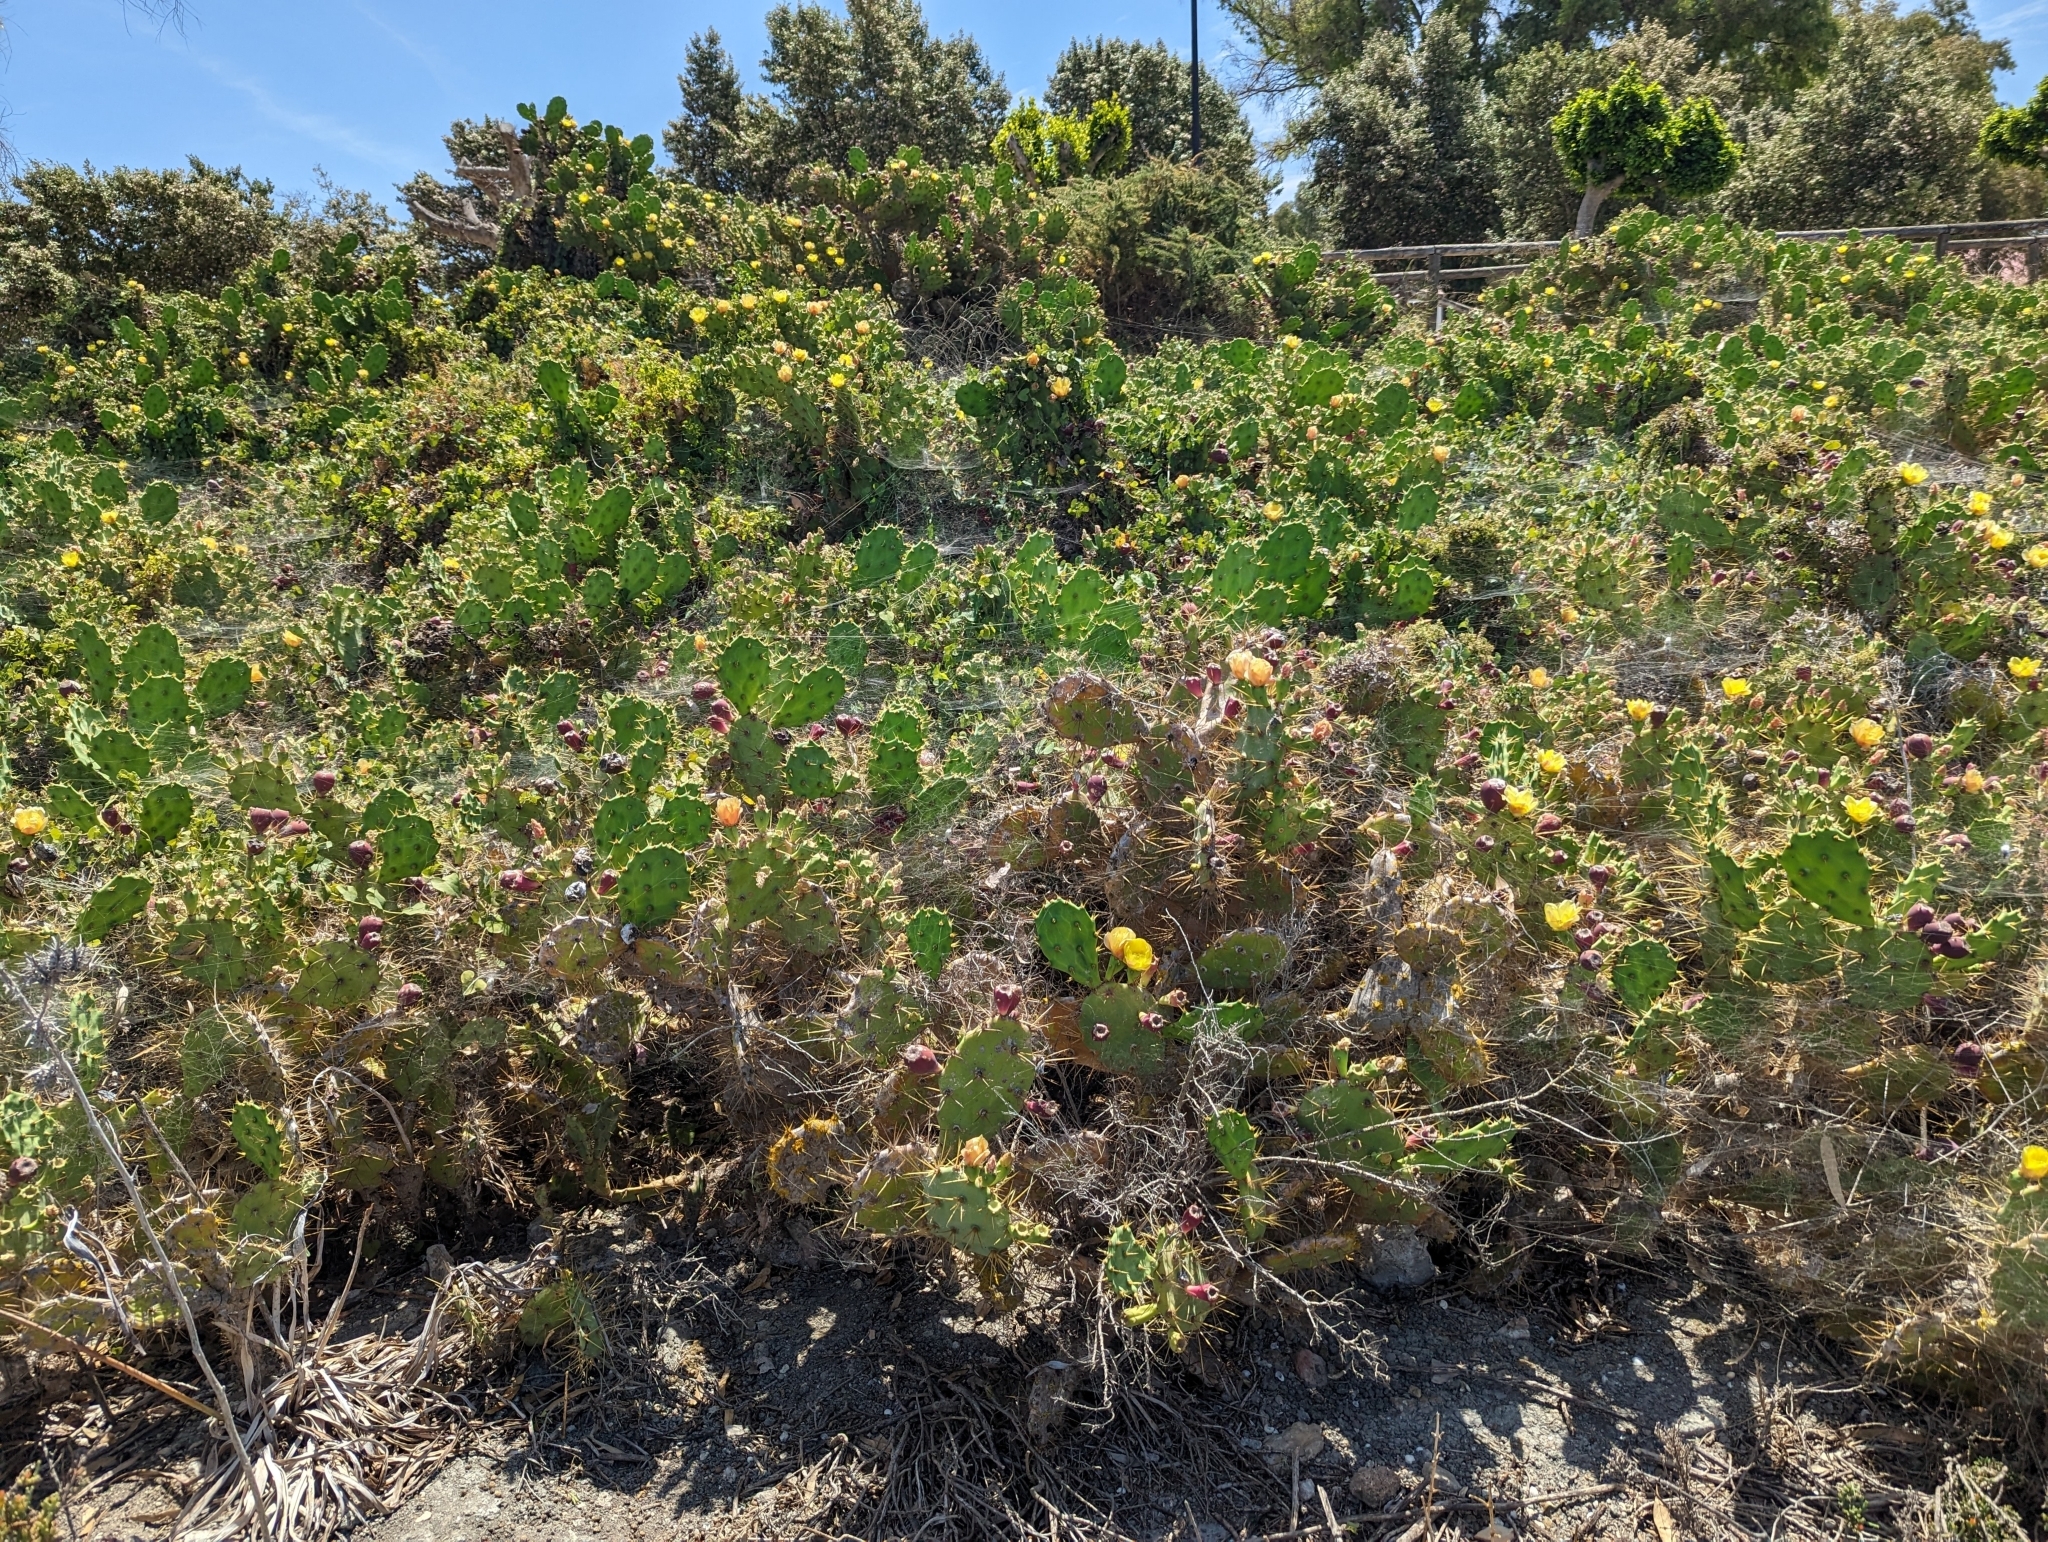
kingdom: Plantae
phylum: Tracheophyta
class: Magnoliopsida
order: Caryophyllales
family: Cactaceae
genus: Opuntia
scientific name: Opuntia stricta
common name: Erect pricklypear
